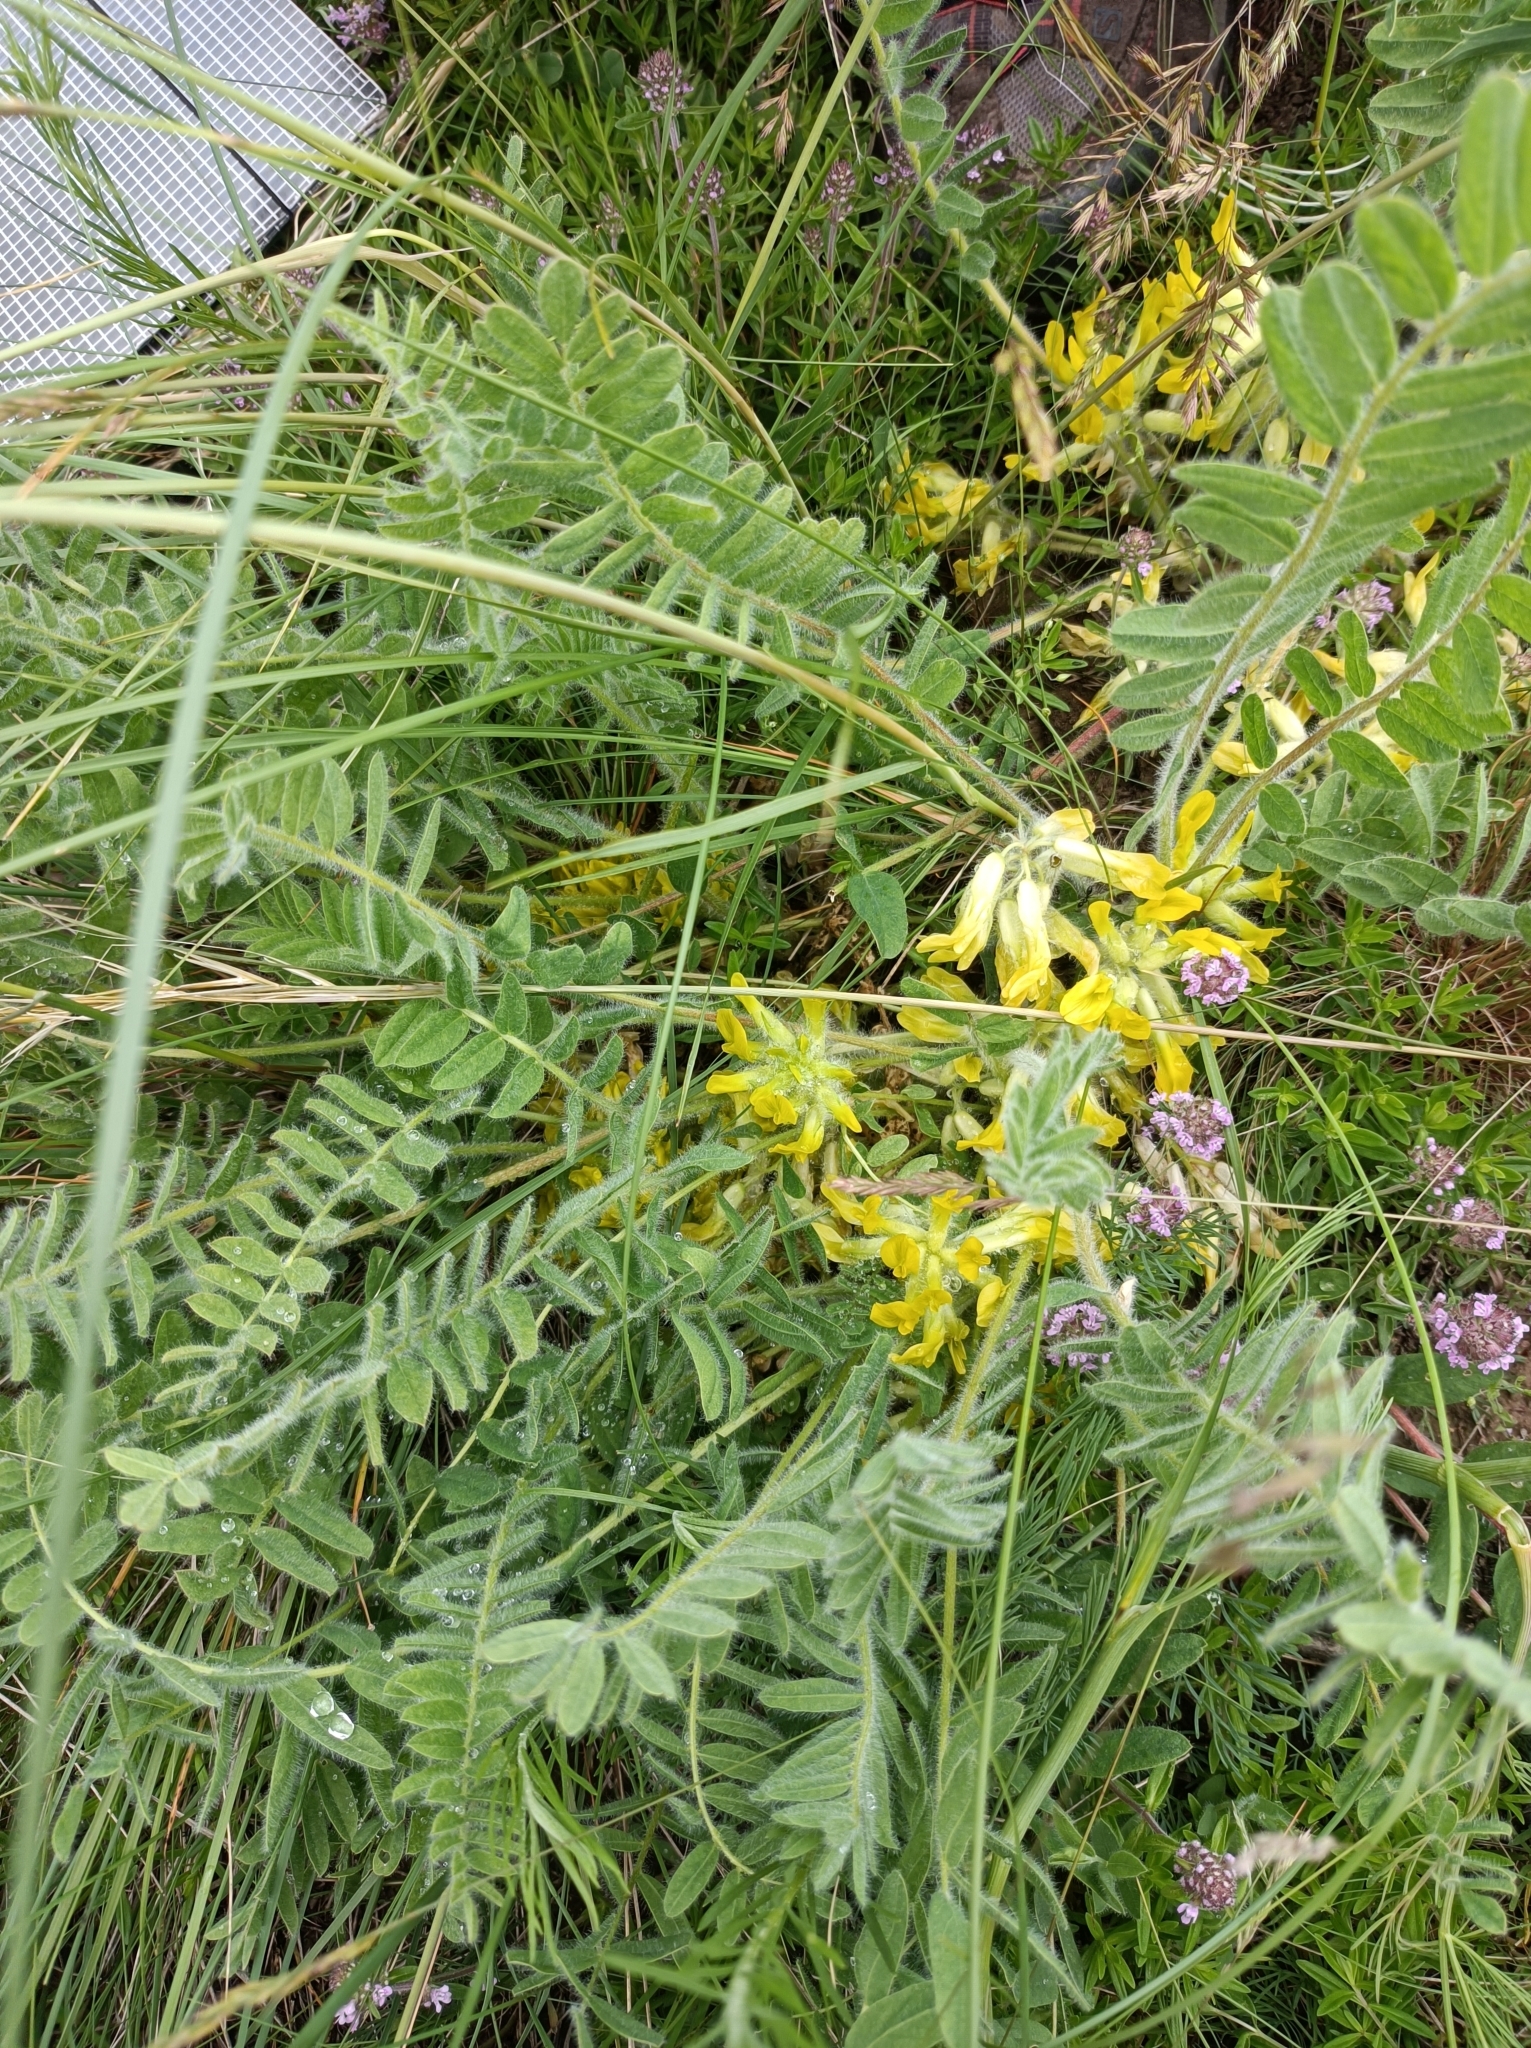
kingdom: Plantae
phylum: Tracheophyta
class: Magnoliopsida
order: Fabales
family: Fabaceae
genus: Astragalus
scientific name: Astragalus exscapus
